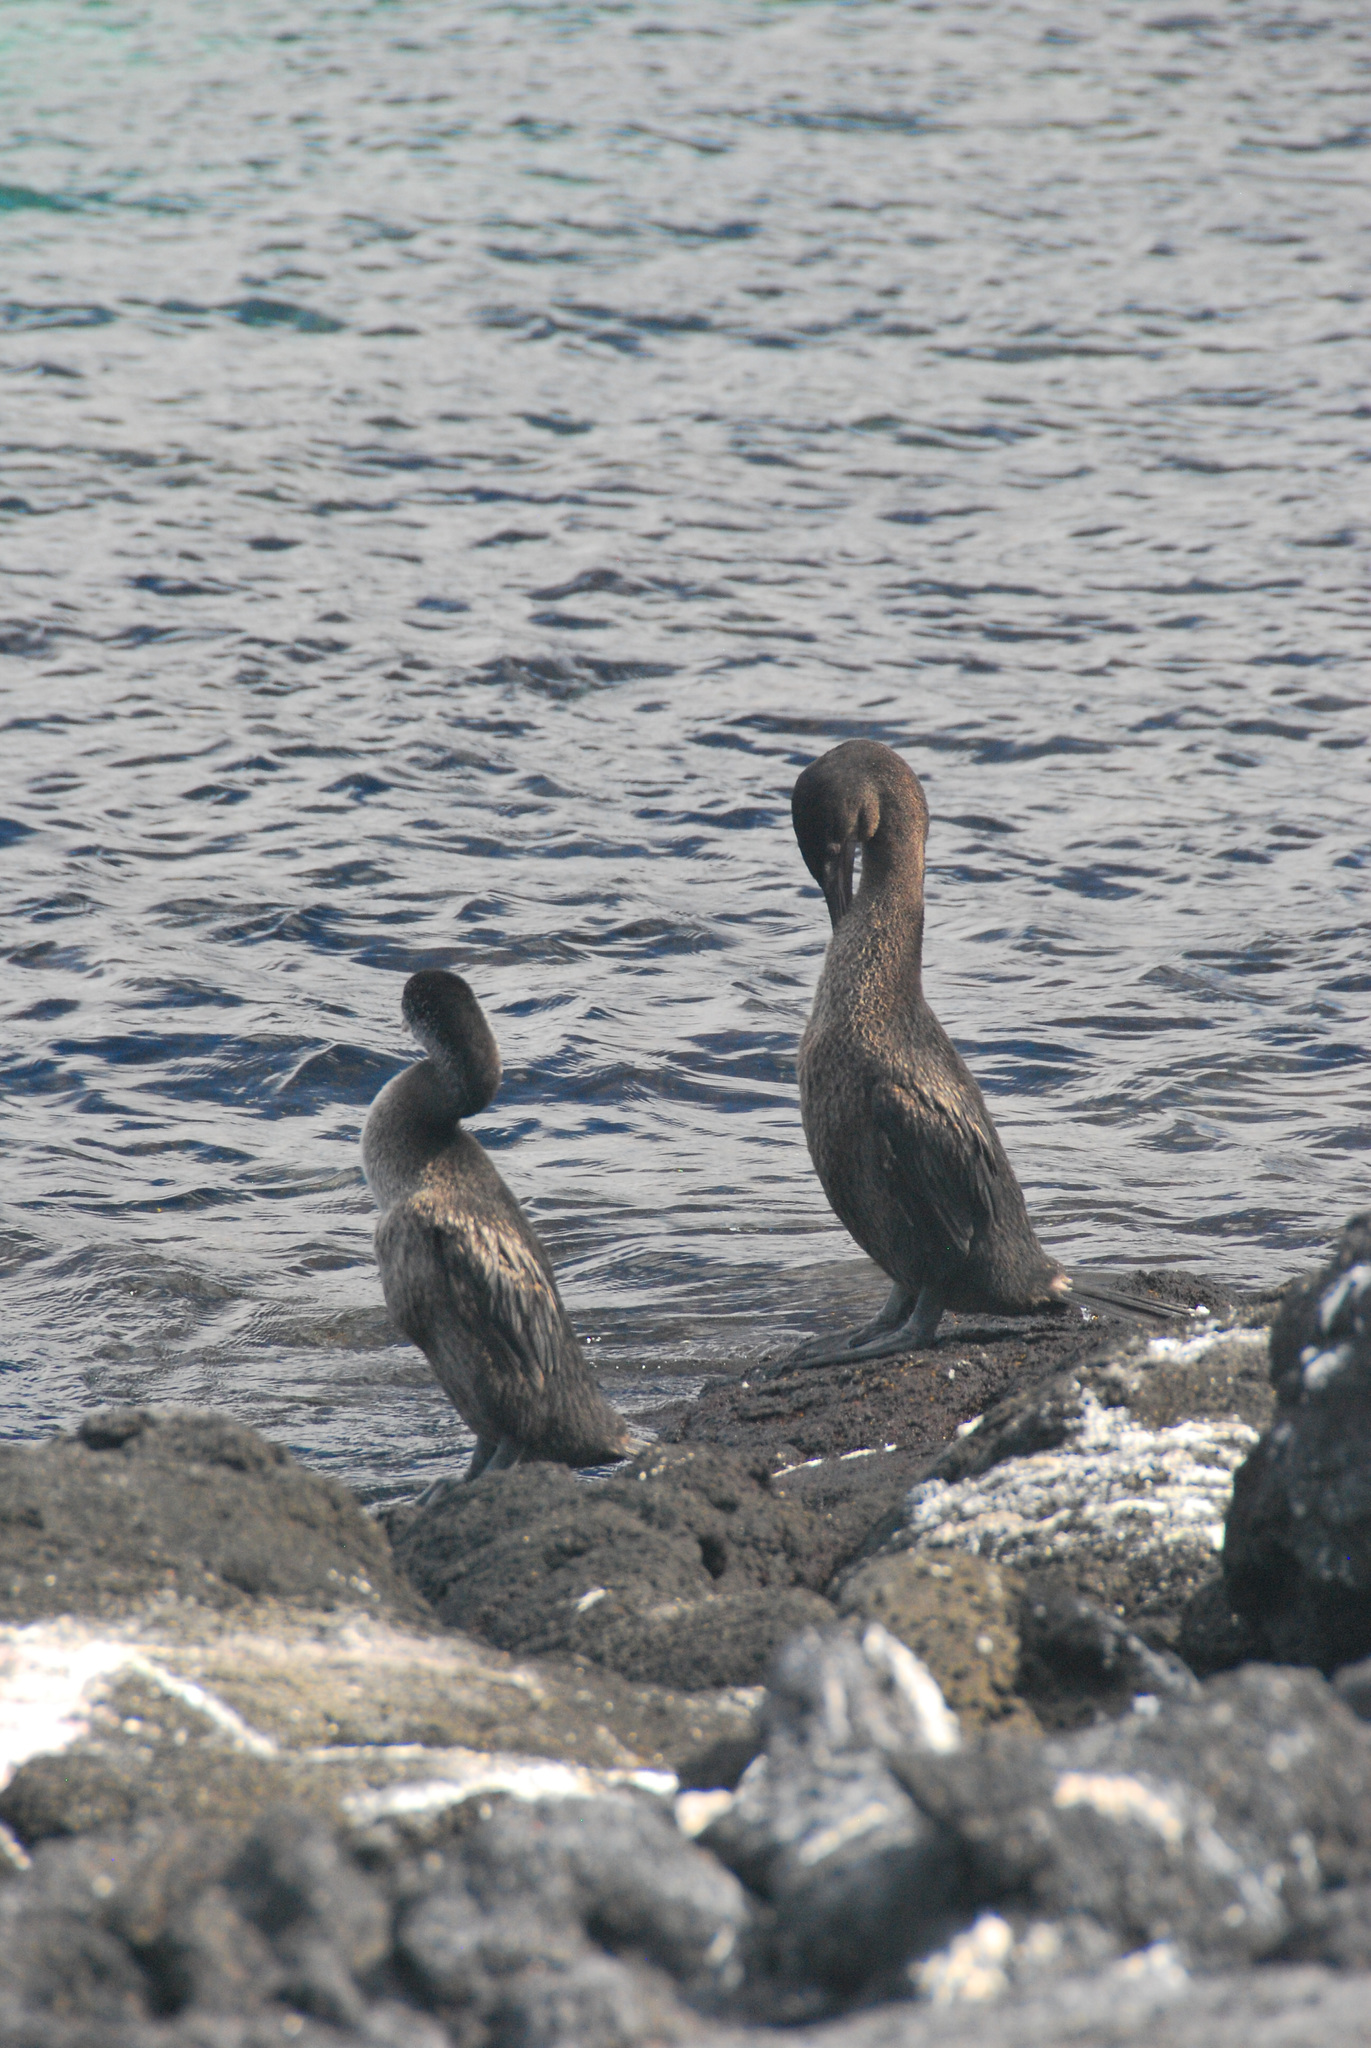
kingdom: Animalia
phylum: Chordata
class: Aves
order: Suliformes
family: Phalacrocoracidae
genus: Phalacrocorax
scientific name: Phalacrocorax harrisi
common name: Flightless cormorant
